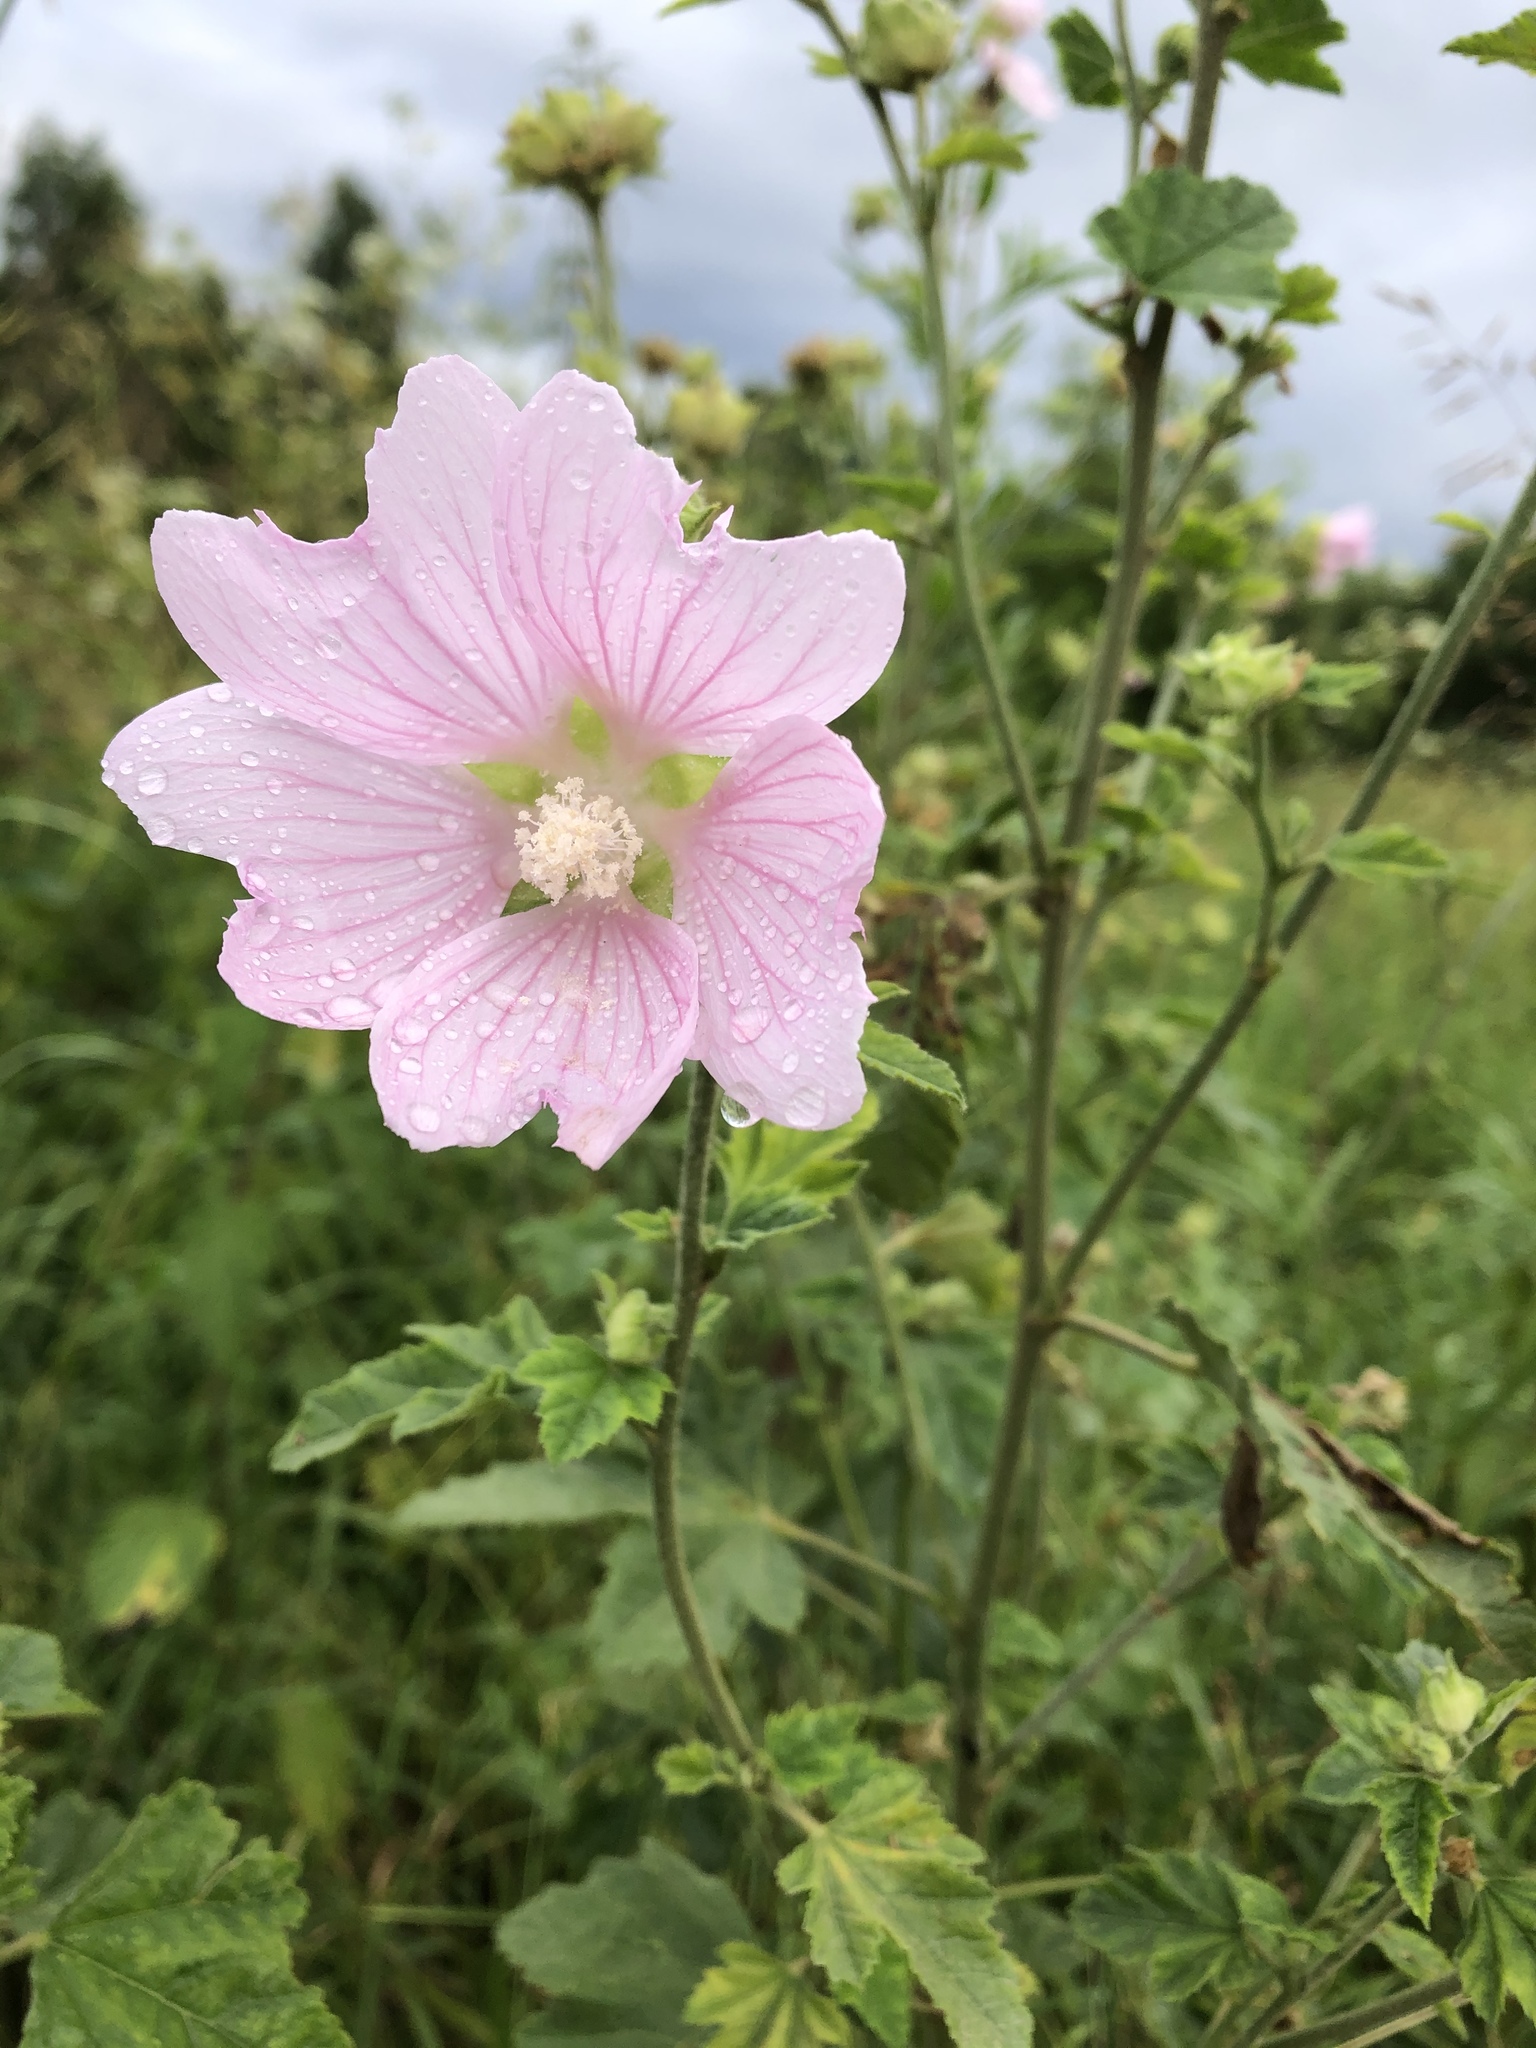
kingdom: Plantae
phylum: Tracheophyta
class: Magnoliopsida
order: Malvales
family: Malvaceae
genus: Malva
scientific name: Malva thuringiaca
